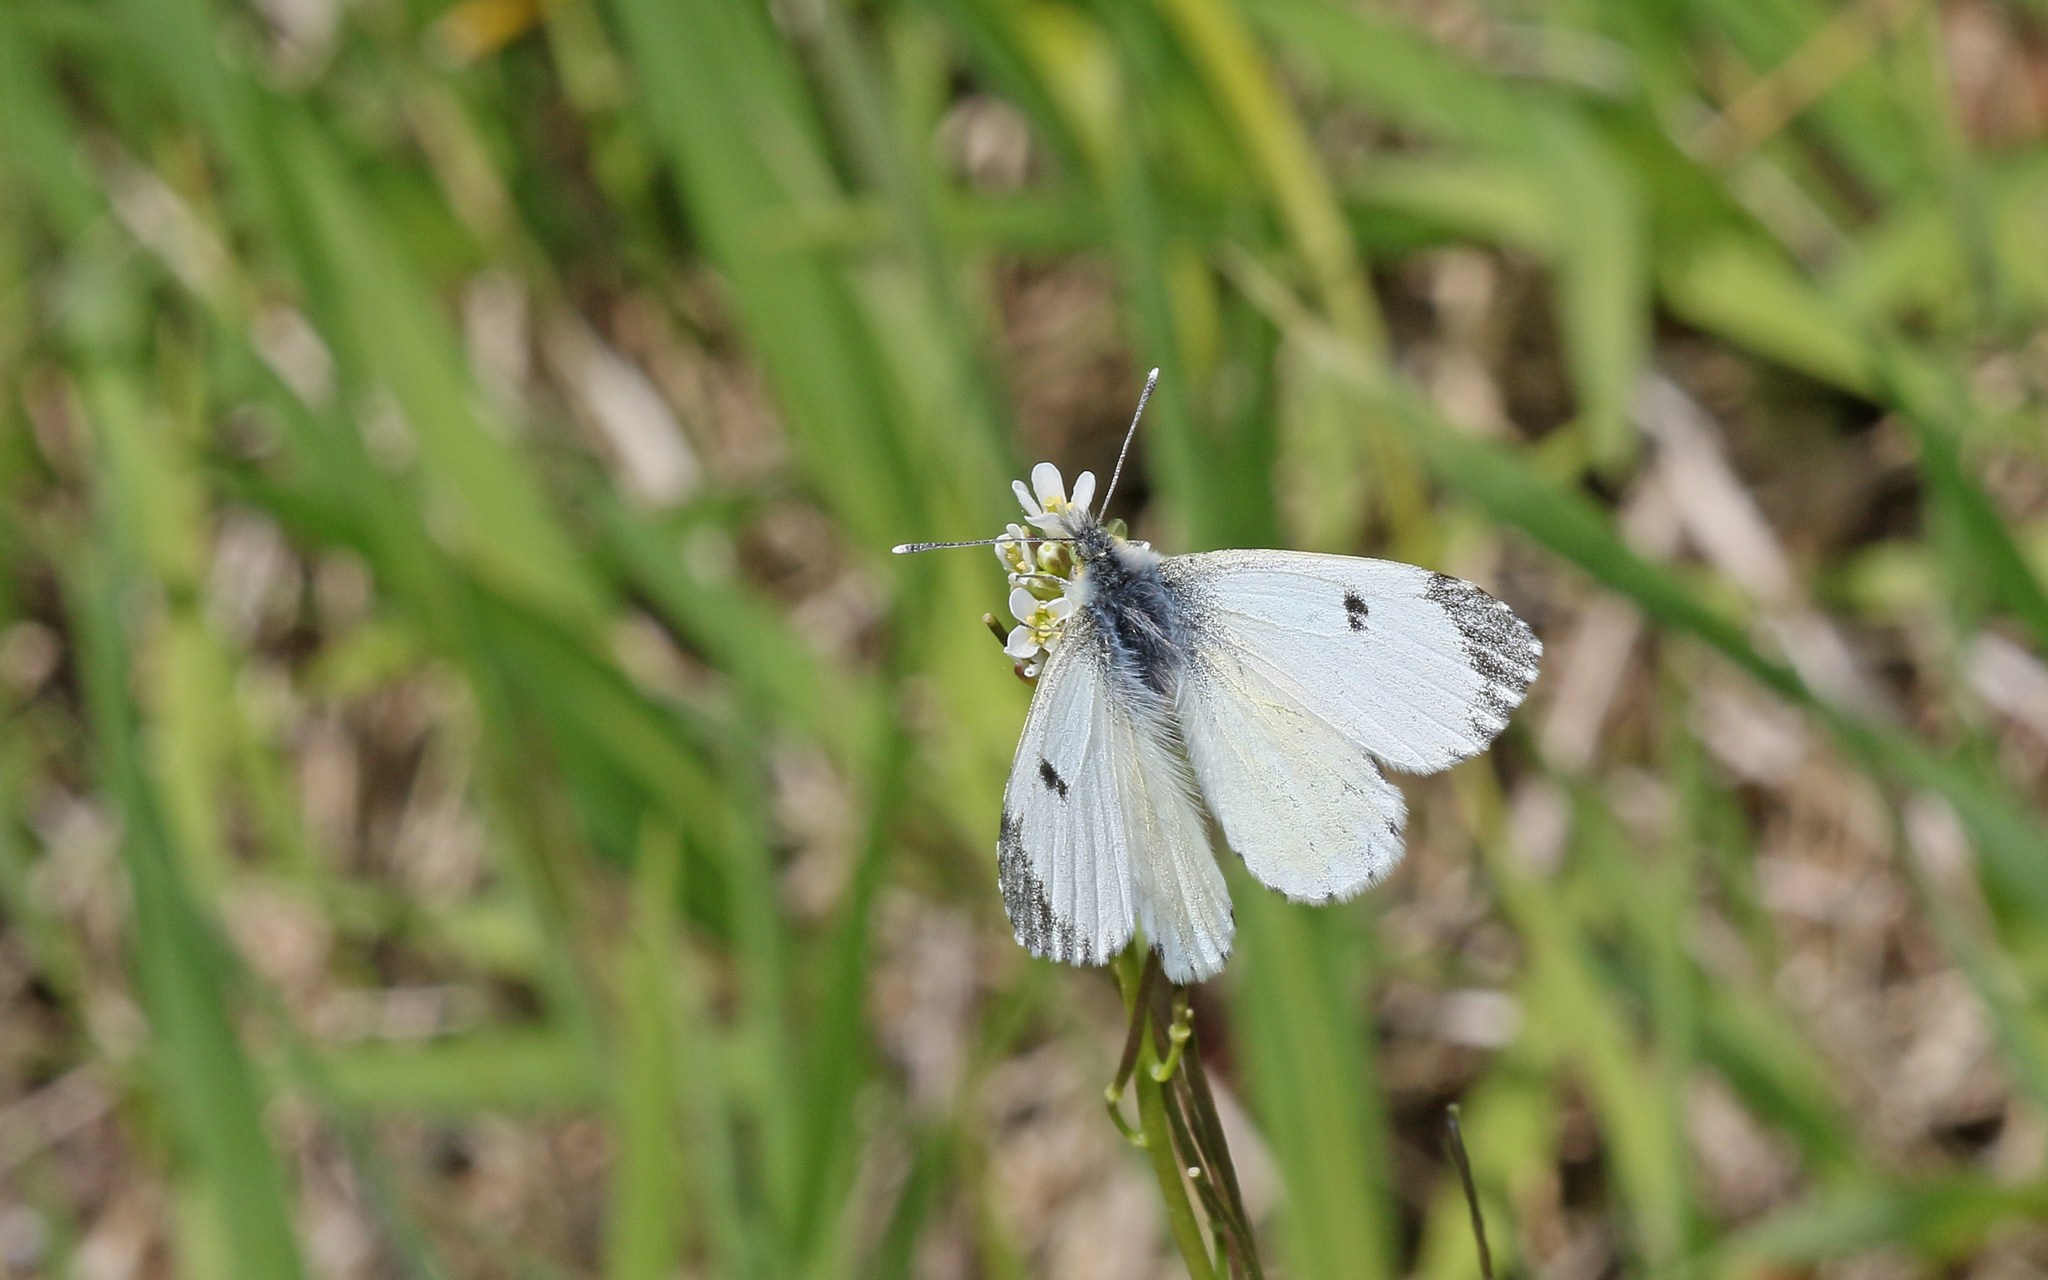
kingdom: Animalia
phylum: Arthropoda
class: Insecta
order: Lepidoptera
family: Pieridae
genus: Anthocharis
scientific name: Anthocharis cardamines
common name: Orange-tip
